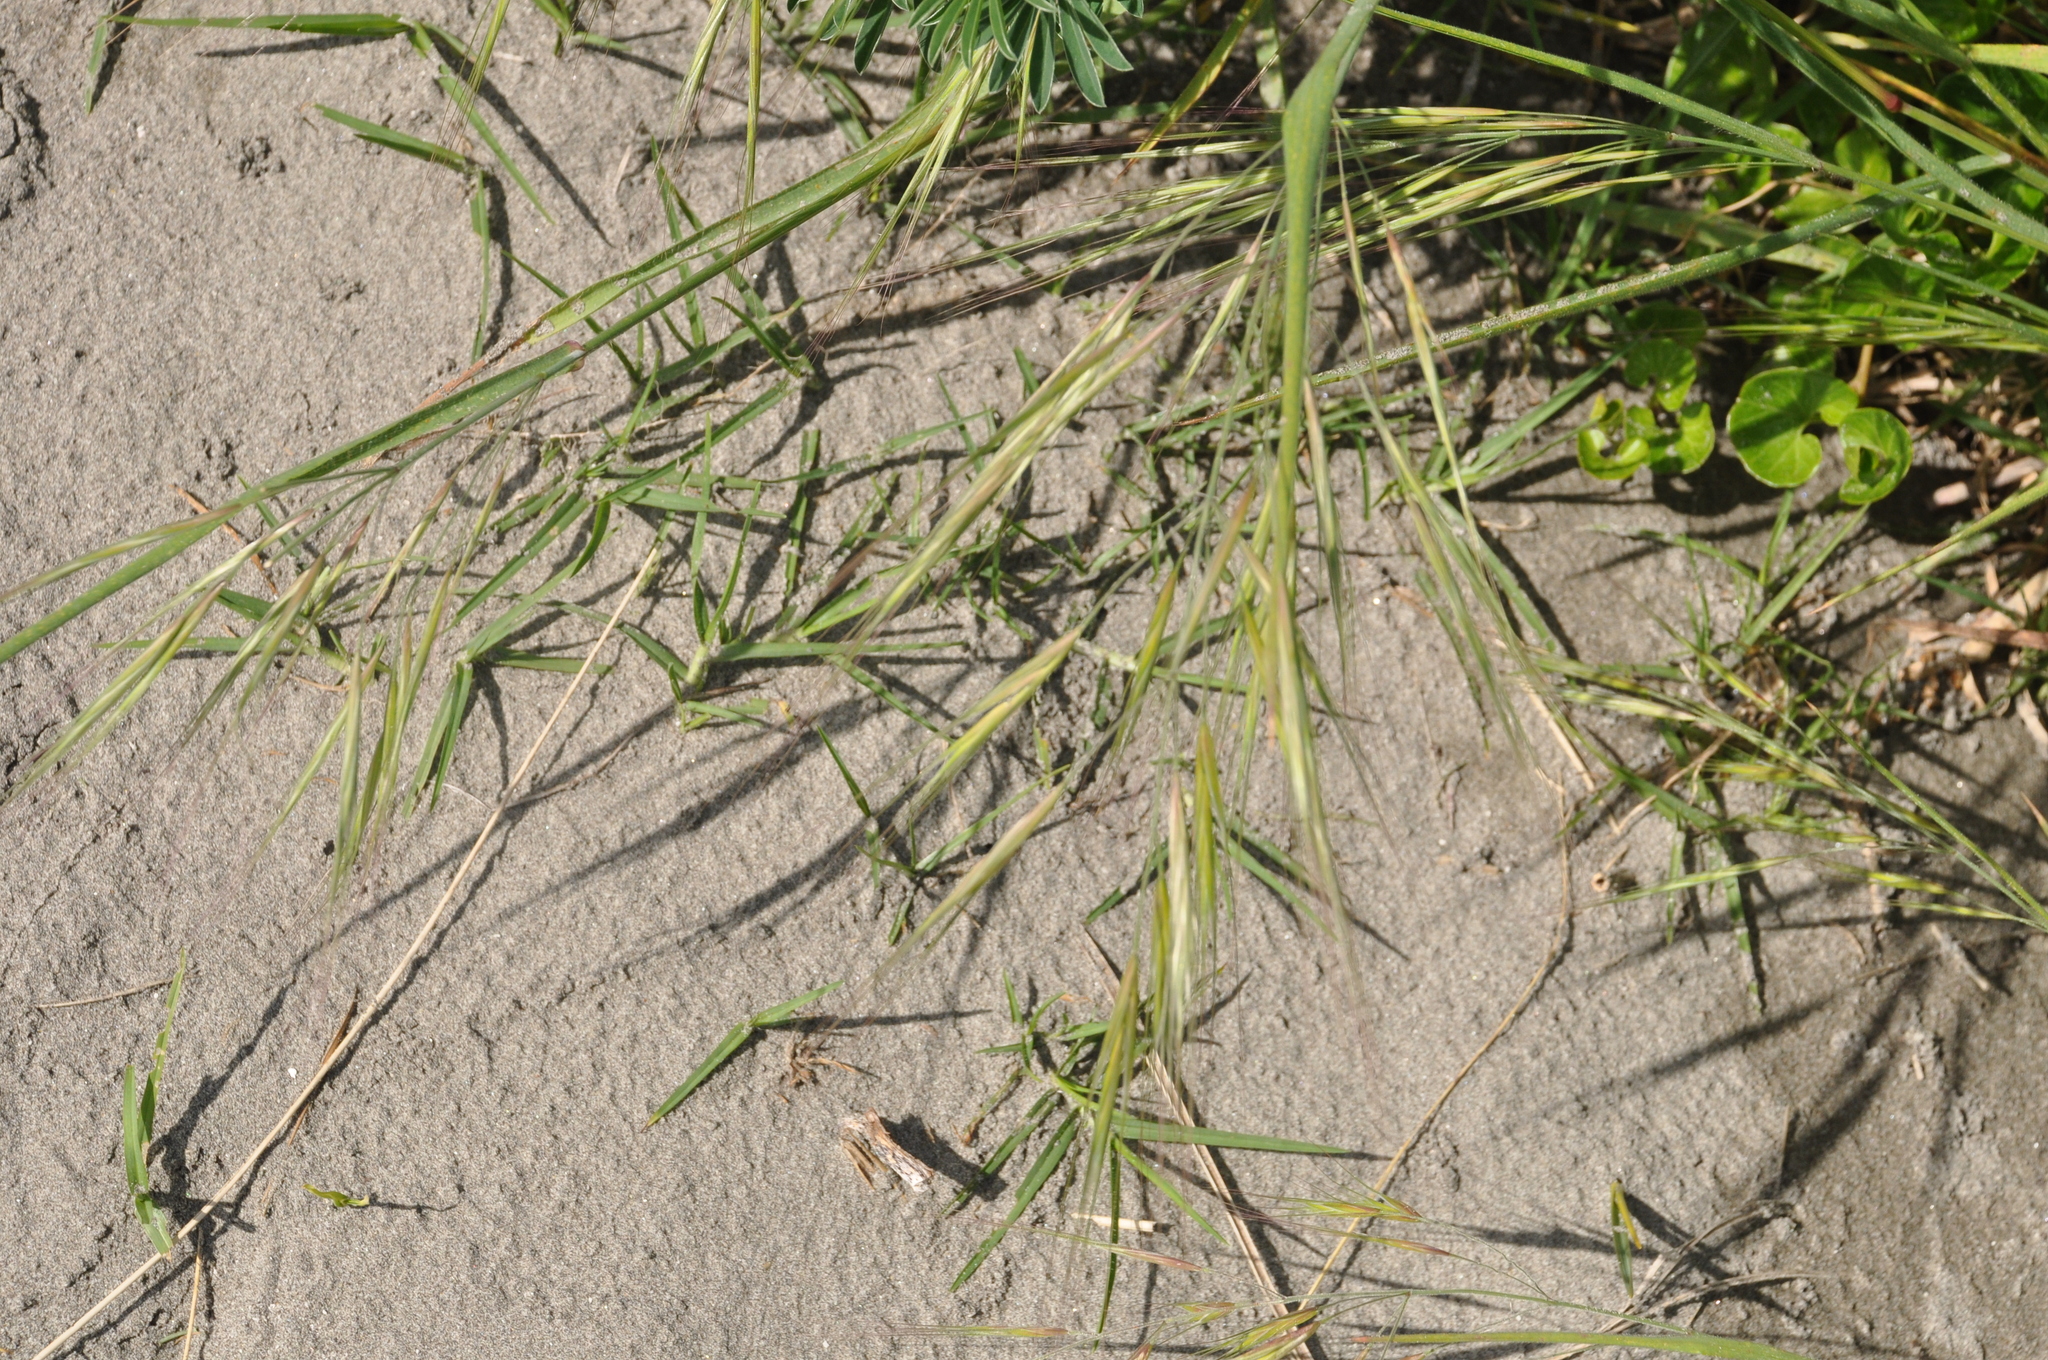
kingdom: Plantae
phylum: Tracheophyta
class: Liliopsida
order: Poales
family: Poaceae
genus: Bromus
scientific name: Bromus diandrus
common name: Ripgut brome
